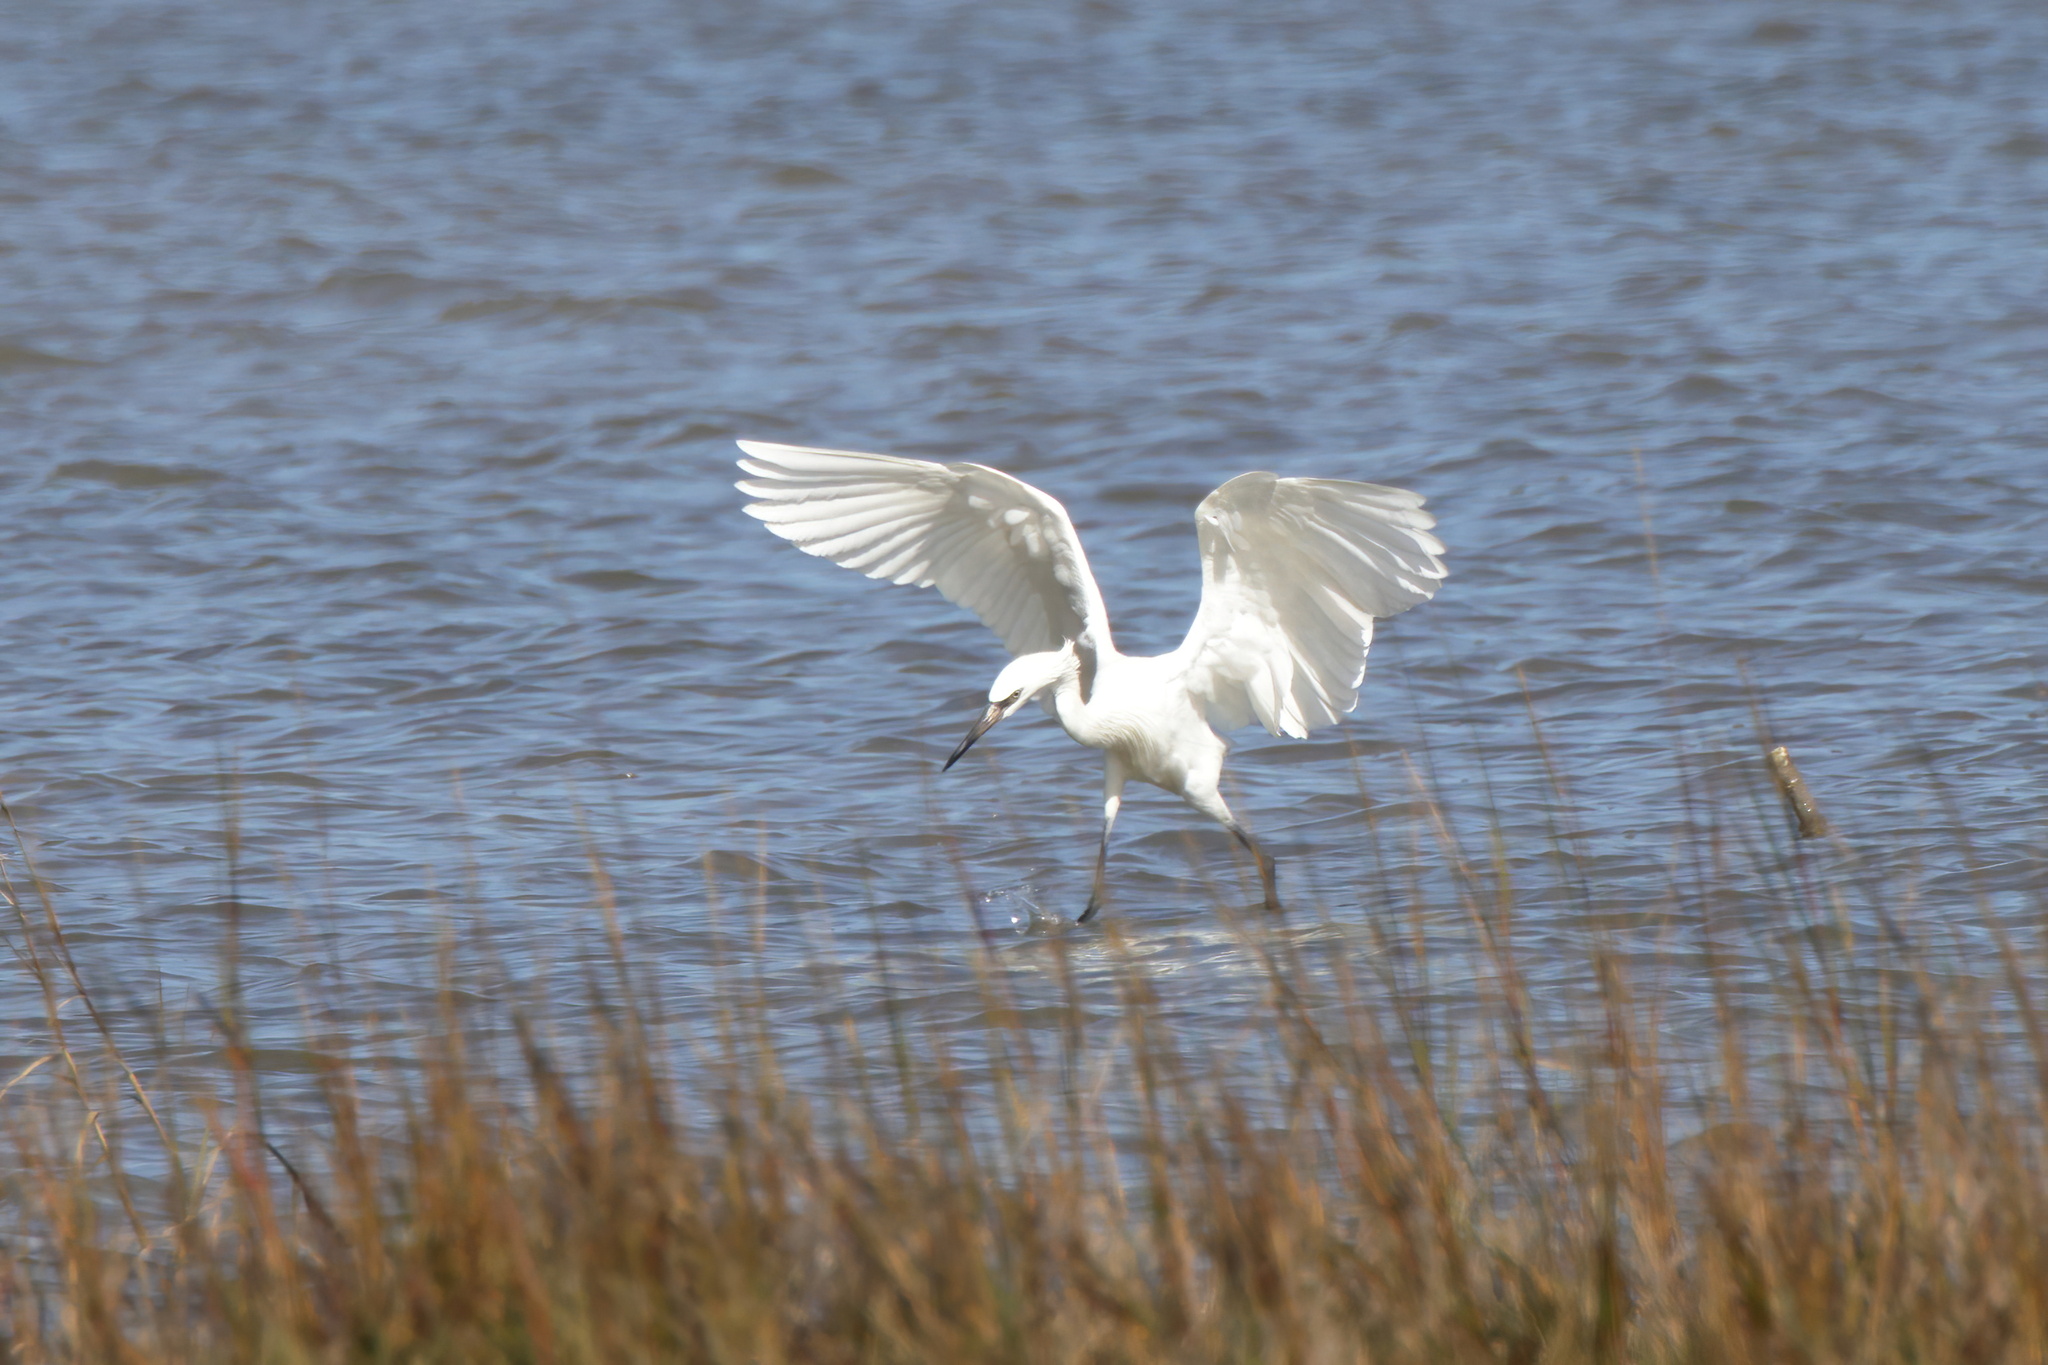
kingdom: Animalia
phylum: Chordata
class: Aves
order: Pelecaniformes
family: Ardeidae
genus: Egretta
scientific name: Egretta rufescens
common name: Reddish egret
